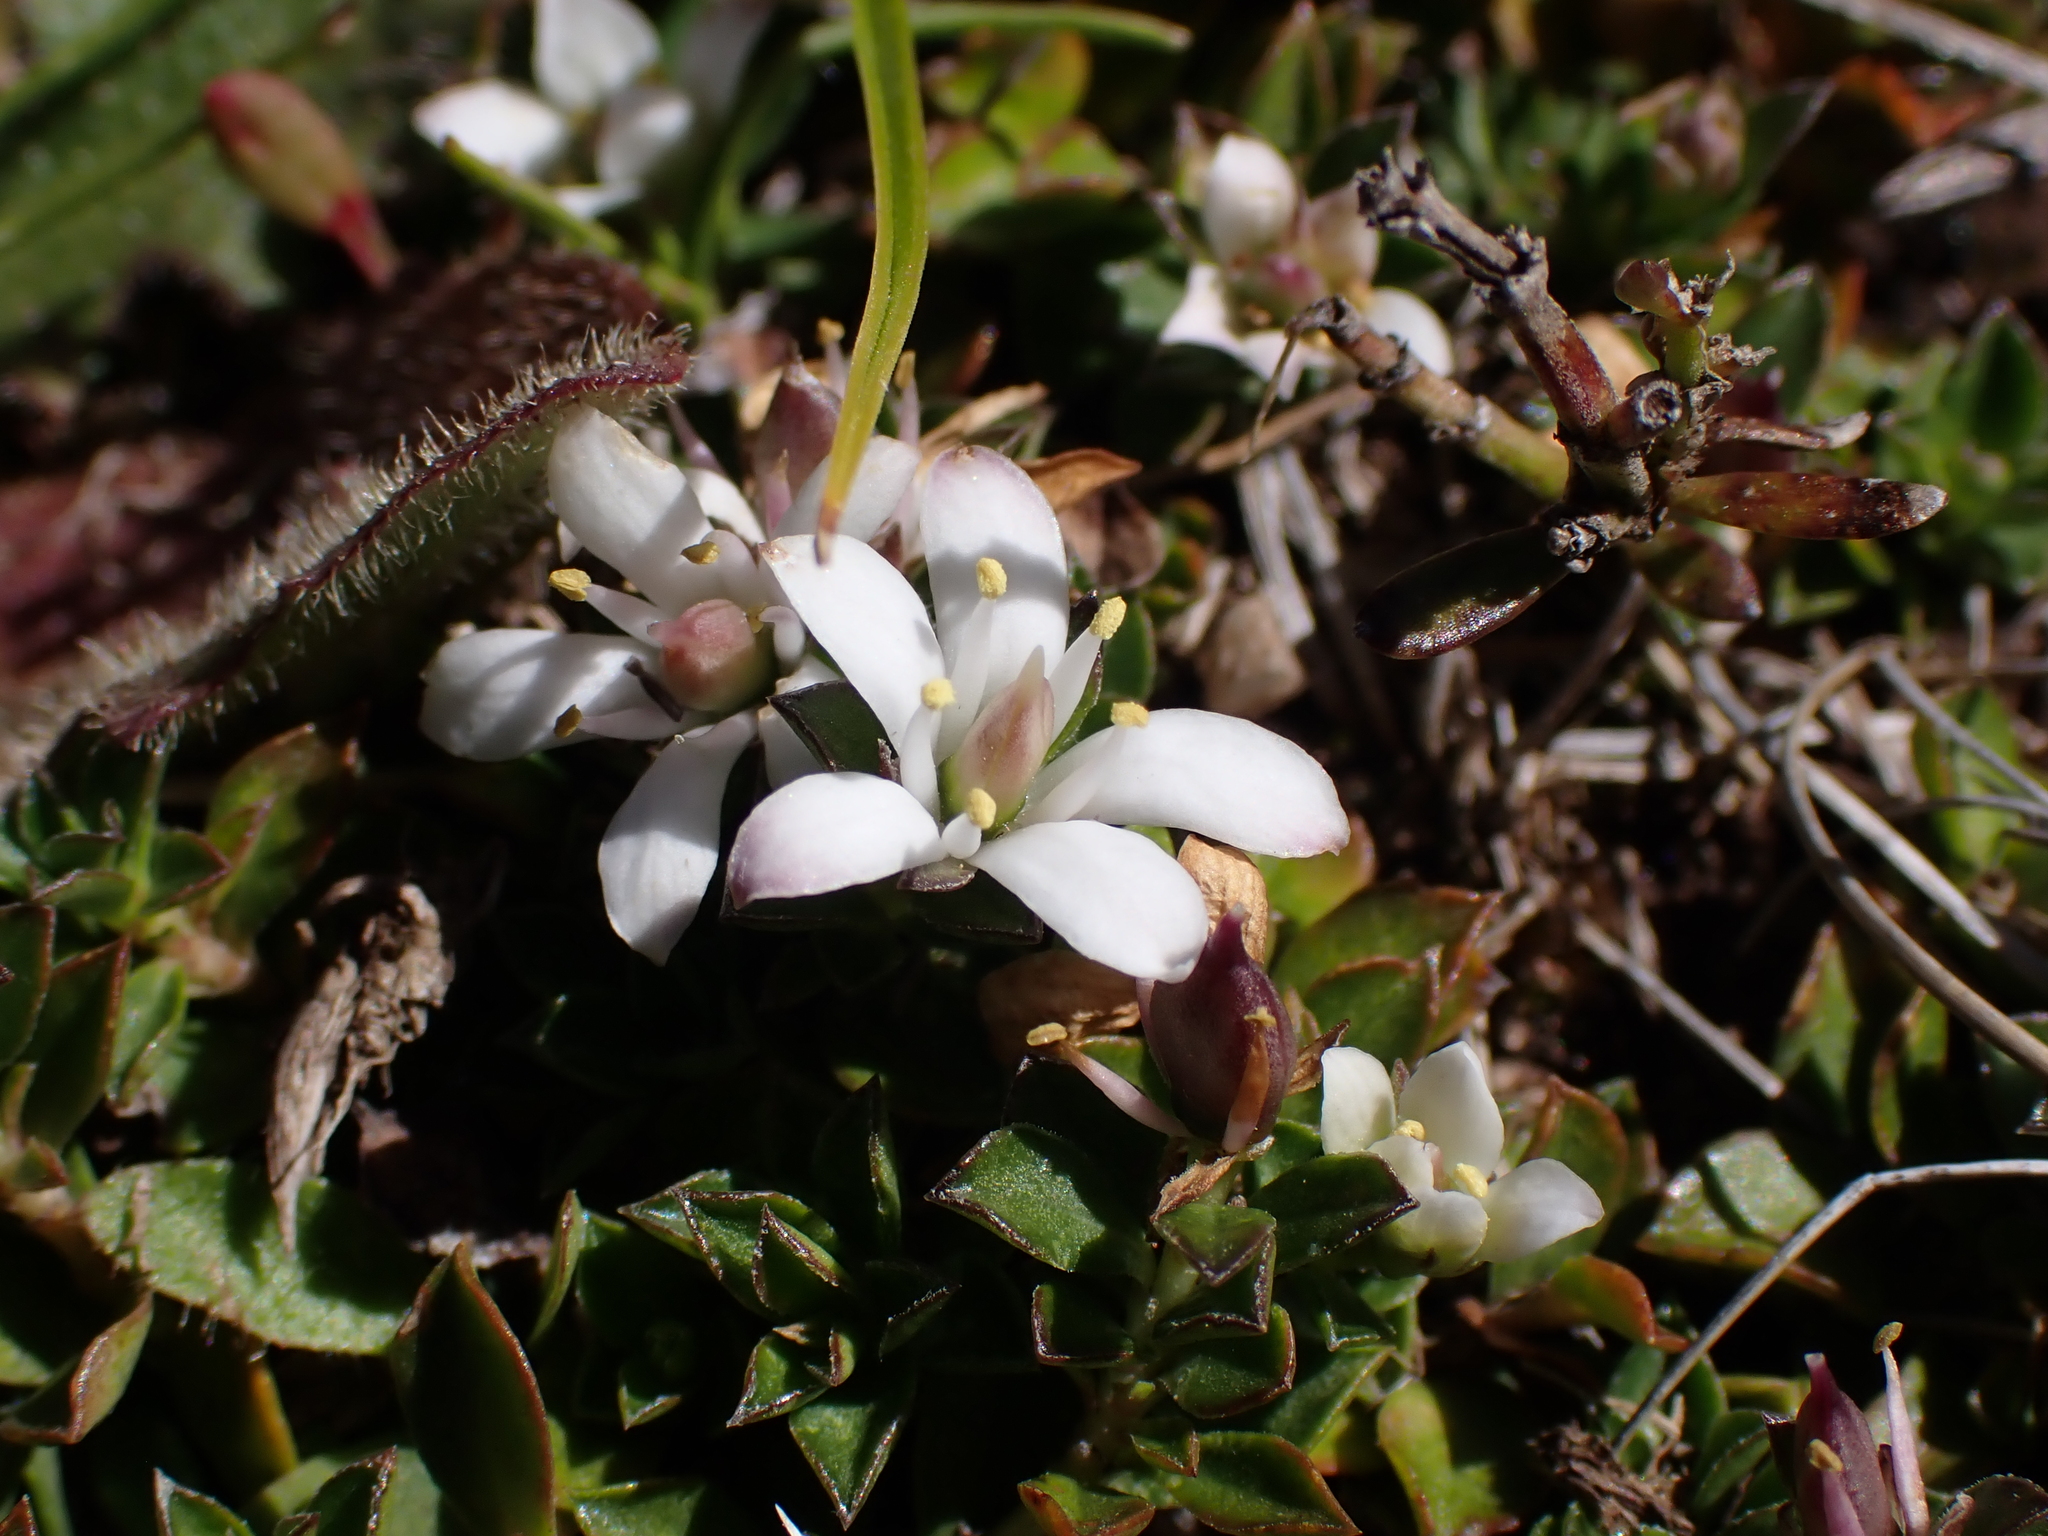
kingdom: Plantae
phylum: Tracheophyta
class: Magnoliopsida
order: Apiales
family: Pittosporaceae
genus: Rhytidosporum
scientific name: Rhytidosporum alpinum
